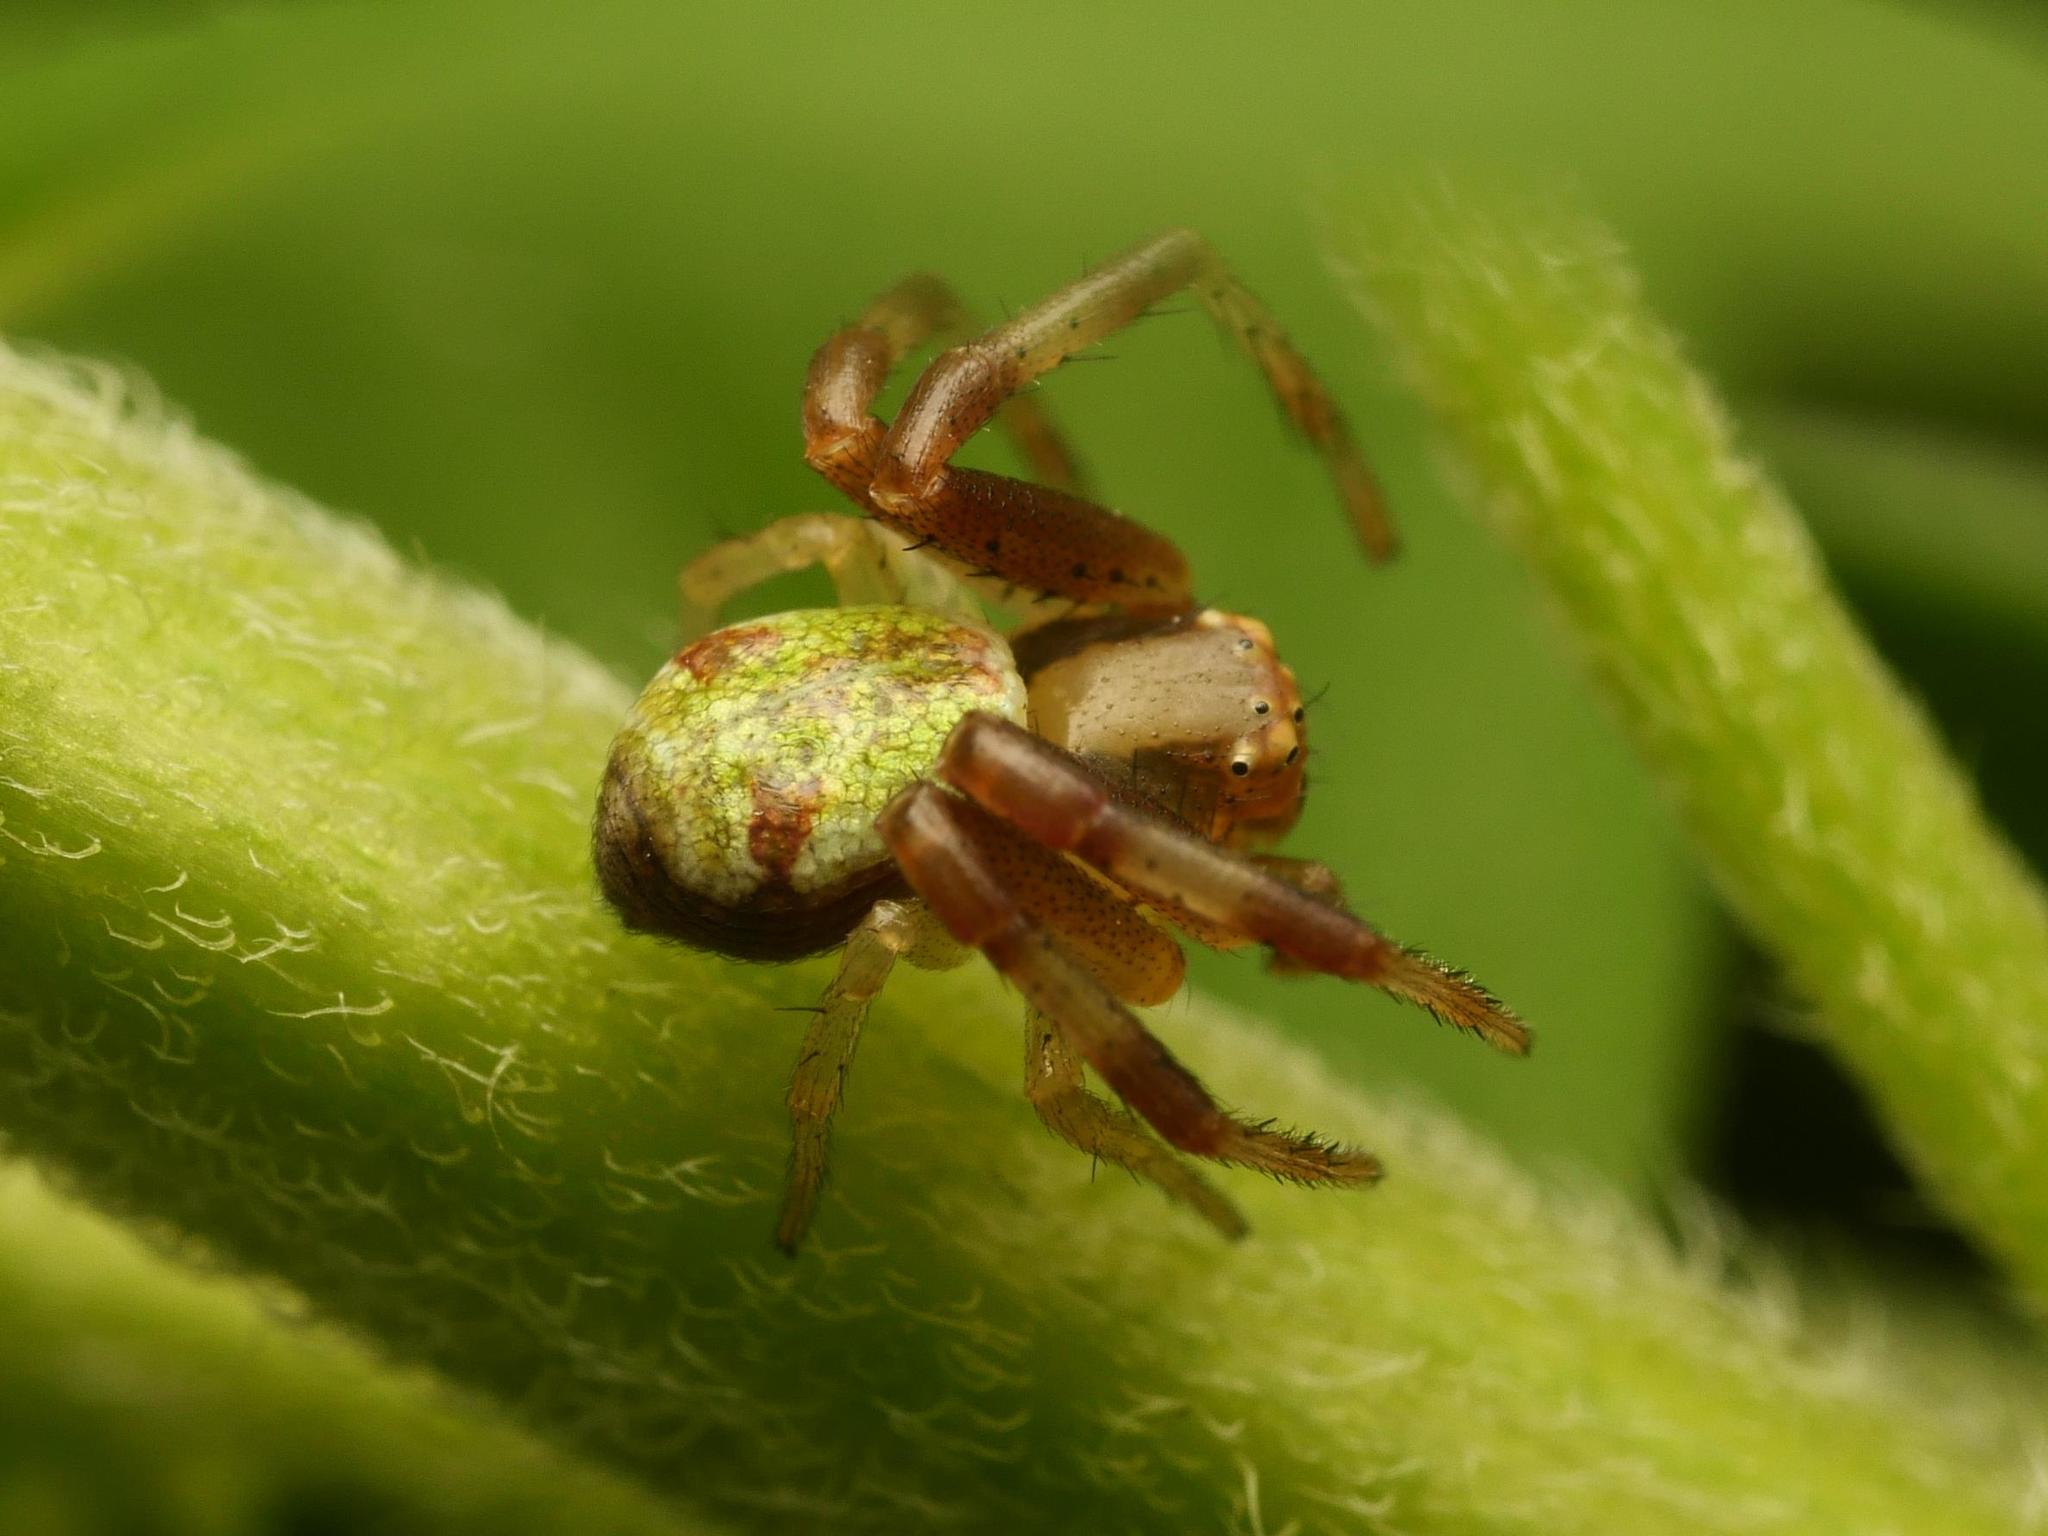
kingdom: Animalia
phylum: Arthropoda
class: Arachnida
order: Araneae
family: Thomisidae
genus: Ebrechtella
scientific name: Ebrechtella tricuspidata
